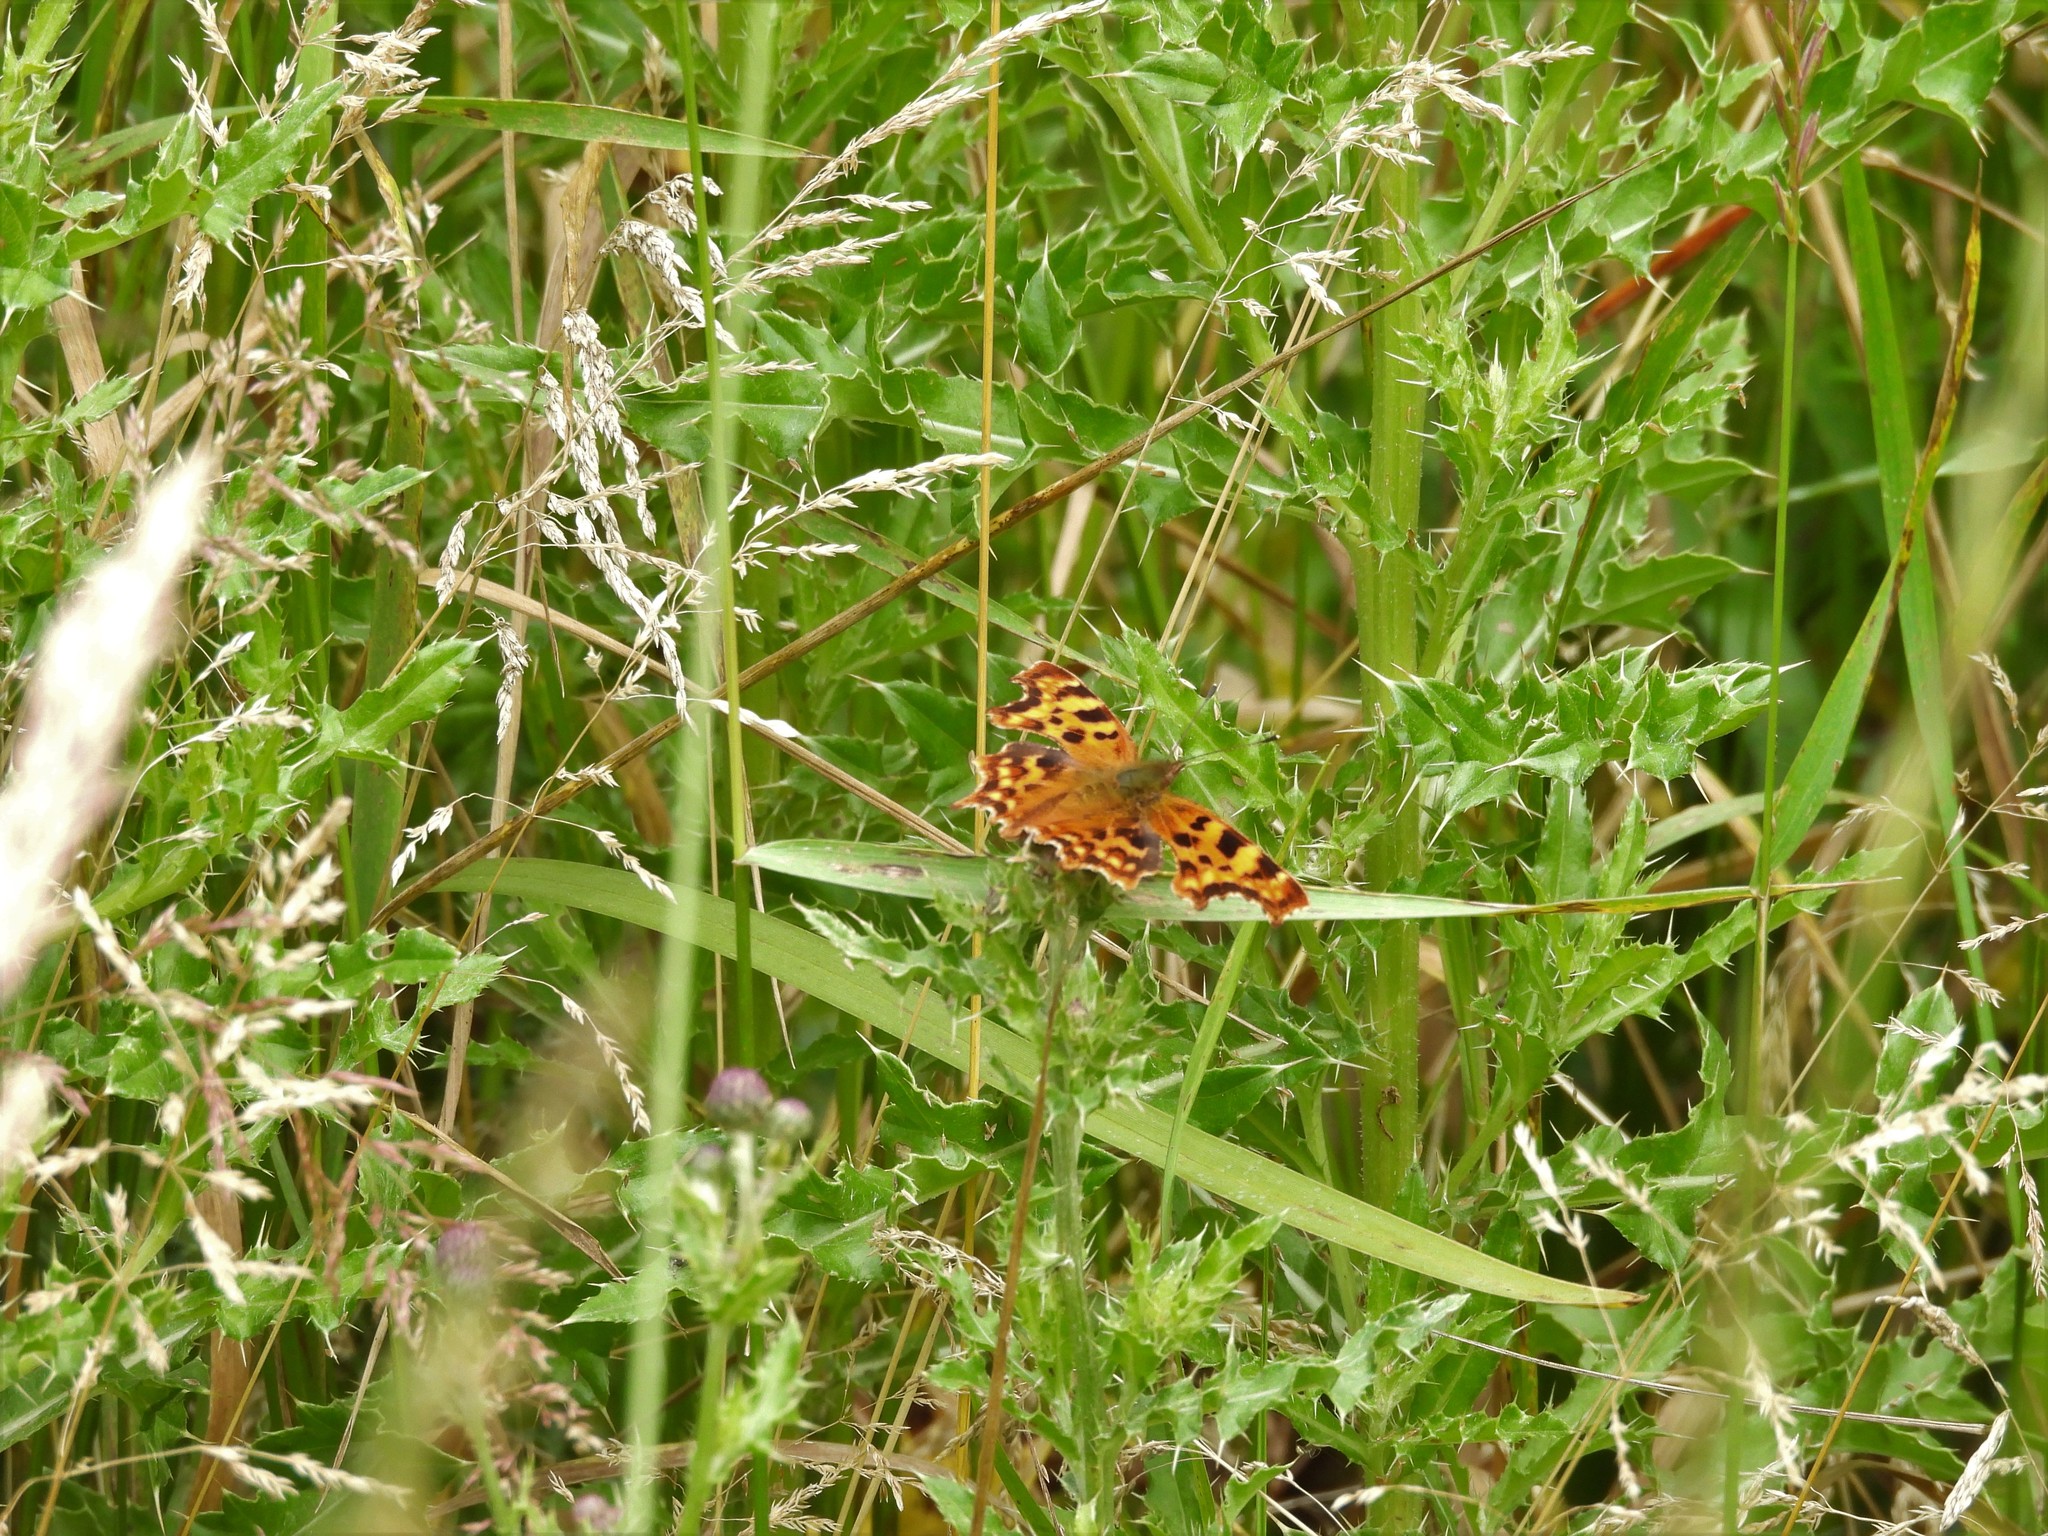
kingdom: Animalia
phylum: Arthropoda
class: Insecta
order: Lepidoptera
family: Nymphalidae
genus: Polygonia
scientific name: Polygonia c-album
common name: Comma
